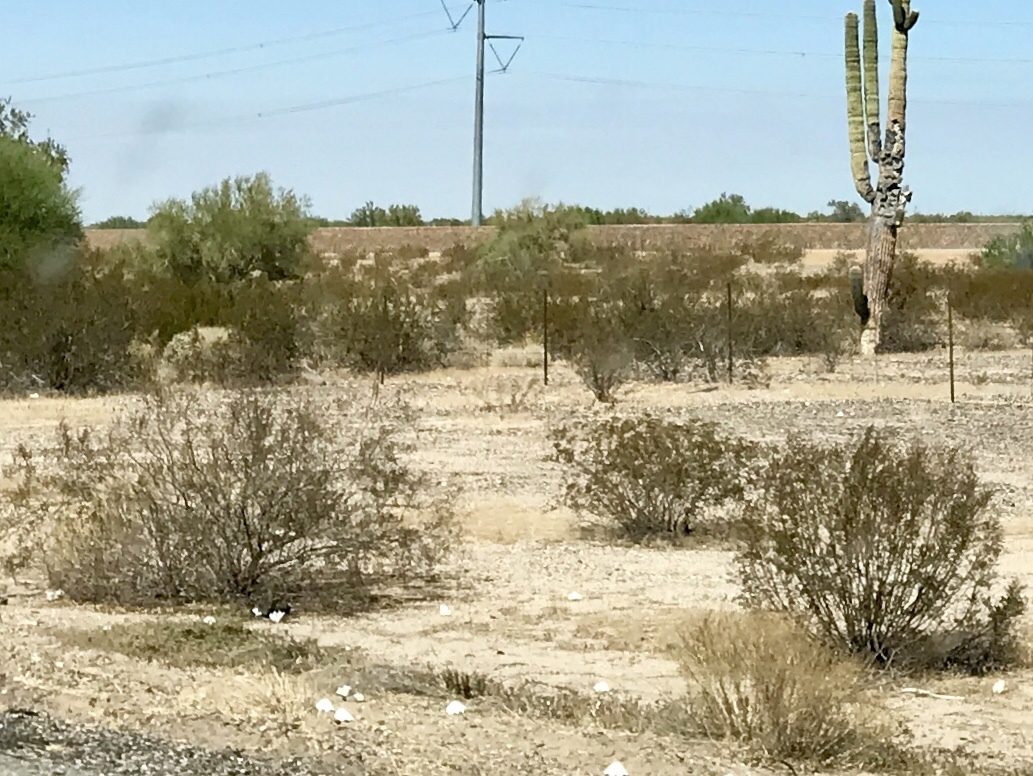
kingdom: Plantae
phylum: Tracheophyta
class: Magnoliopsida
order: Zygophyllales
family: Zygophyllaceae
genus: Larrea
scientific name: Larrea tridentata
